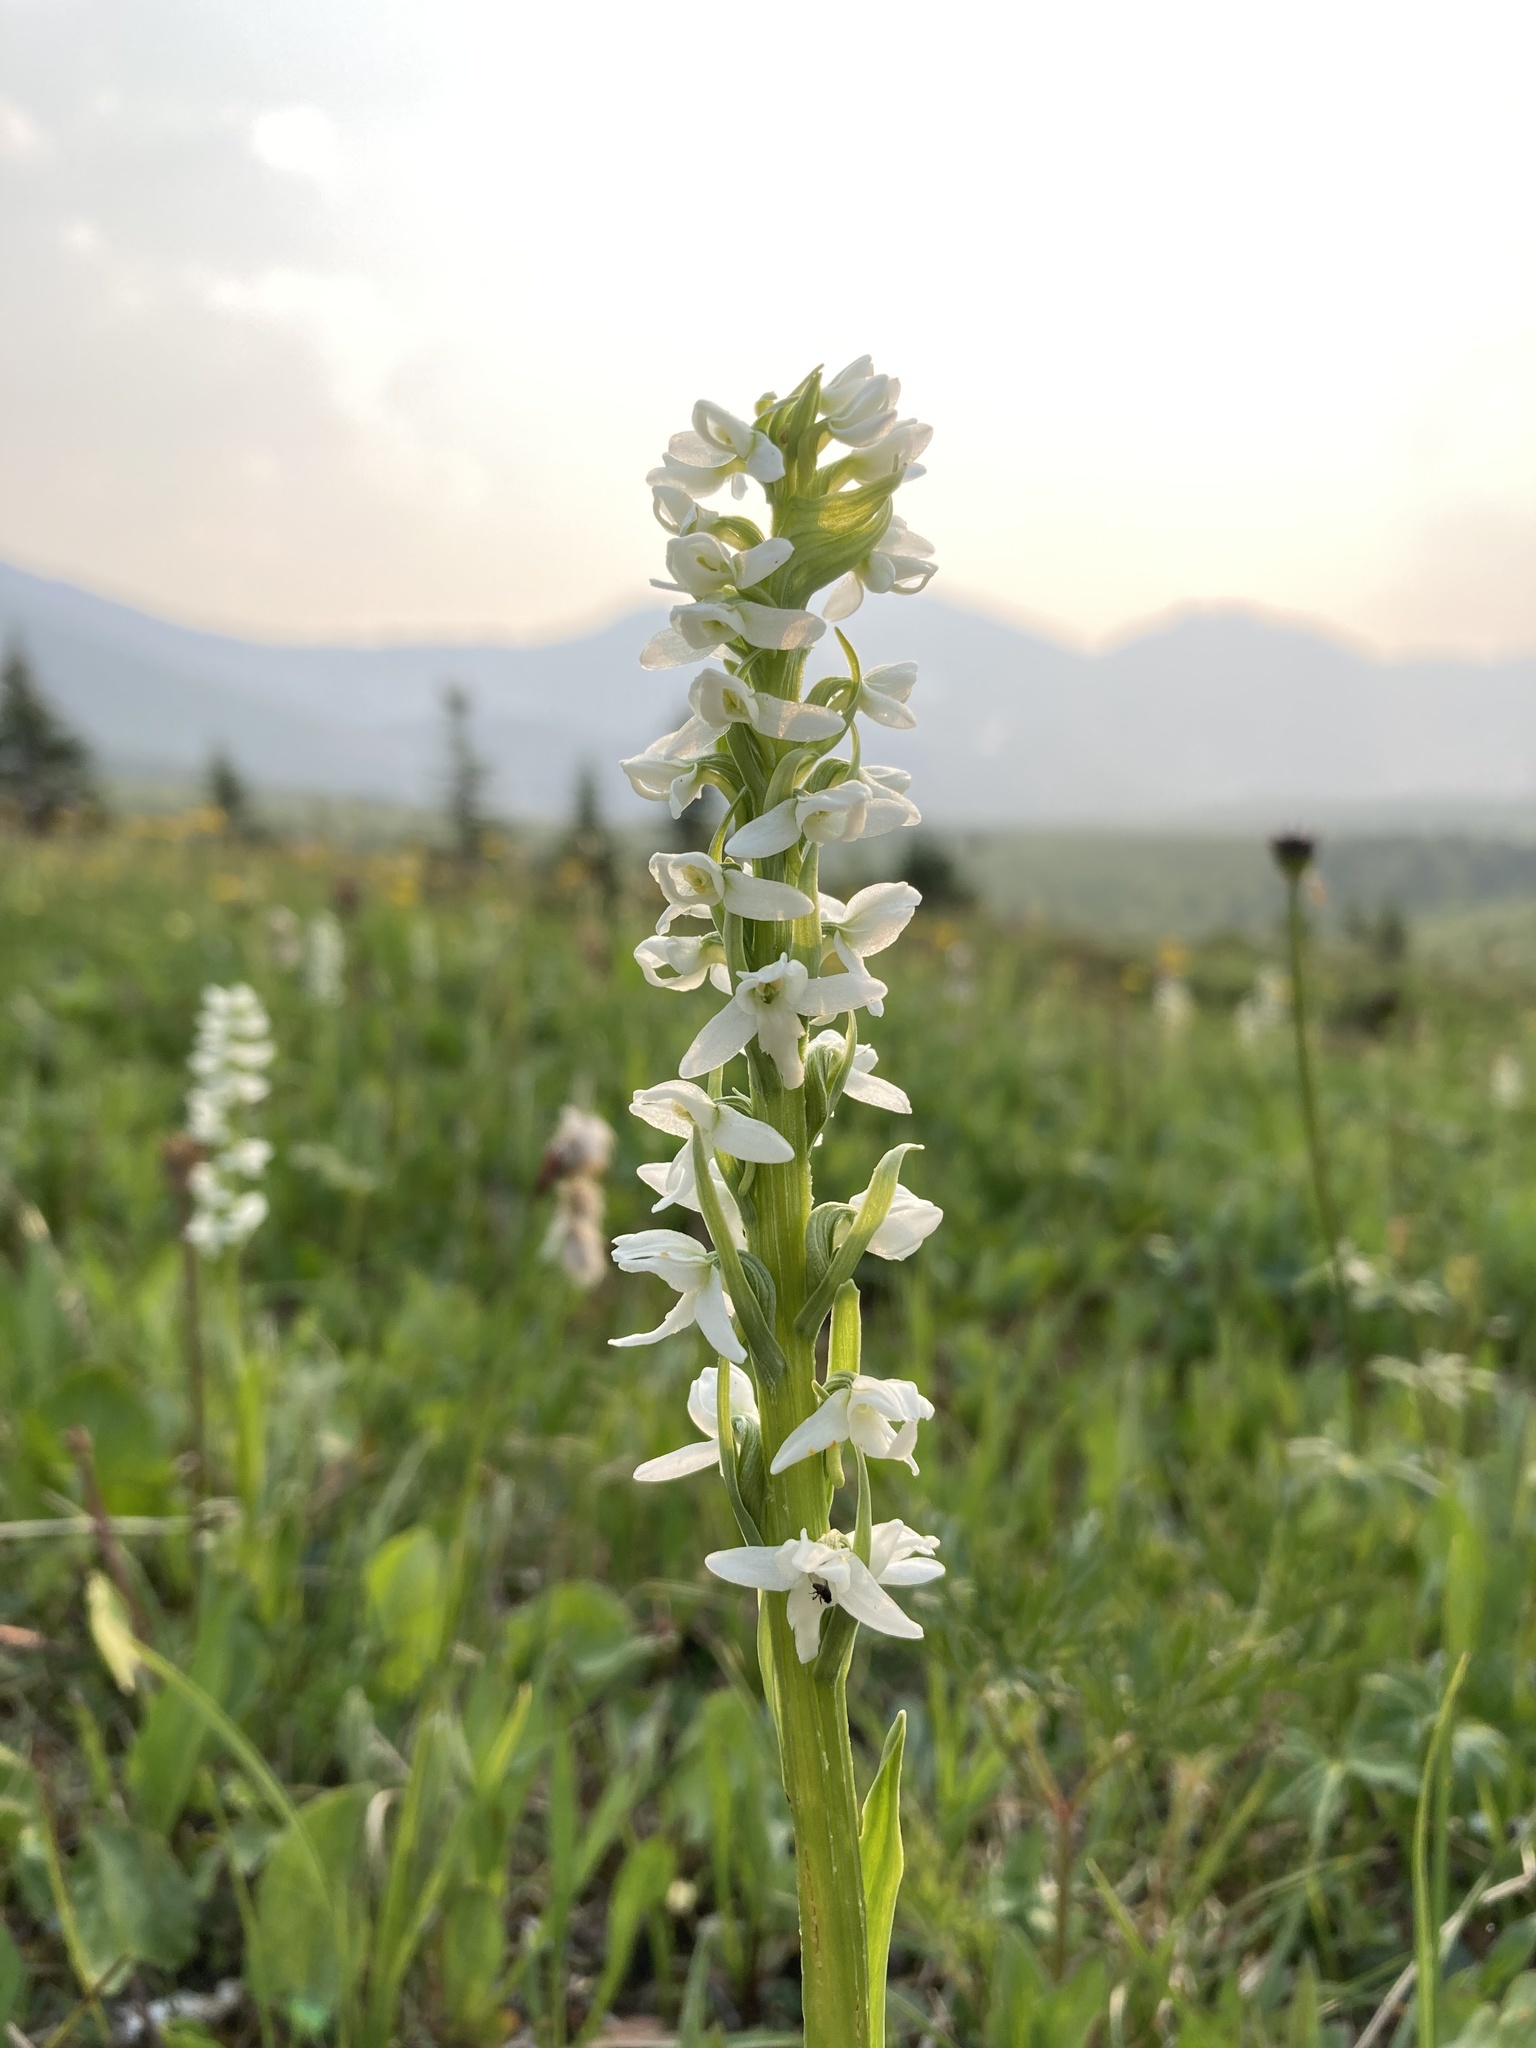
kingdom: Plantae
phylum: Tracheophyta
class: Liliopsida
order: Asparagales
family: Orchidaceae
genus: Platanthera
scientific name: Platanthera dilatata
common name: Bog candles
